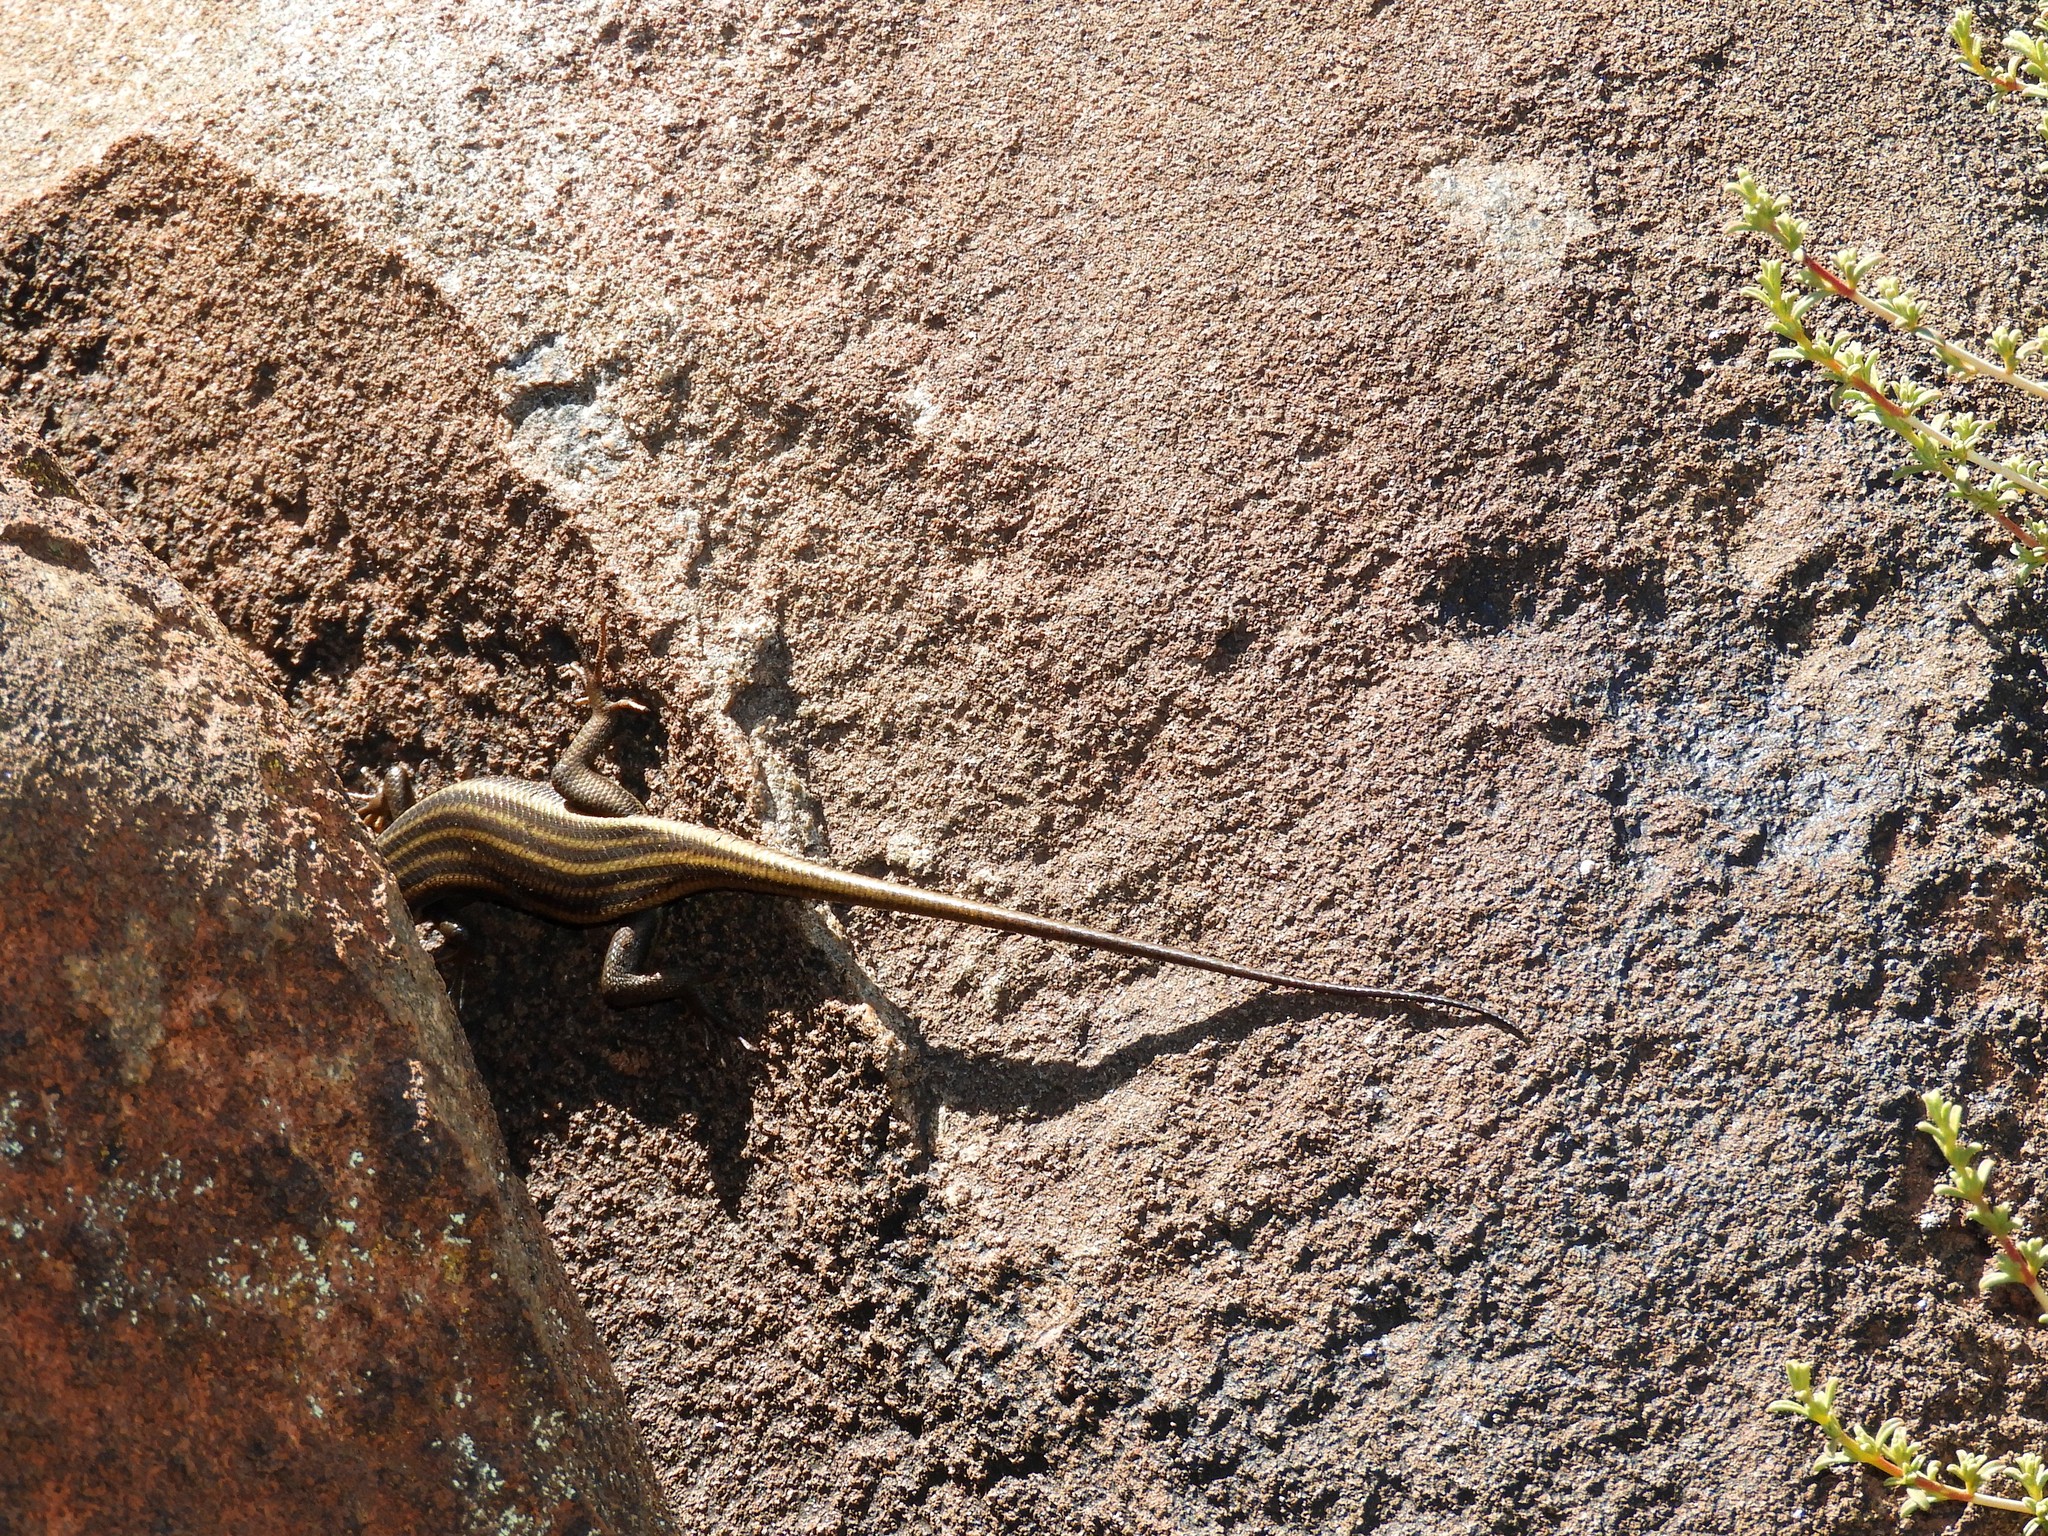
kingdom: Animalia
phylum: Chordata
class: Squamata
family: Scincidae
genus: Trachylepis
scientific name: Trachylepis sulcata
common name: Western rock skink
